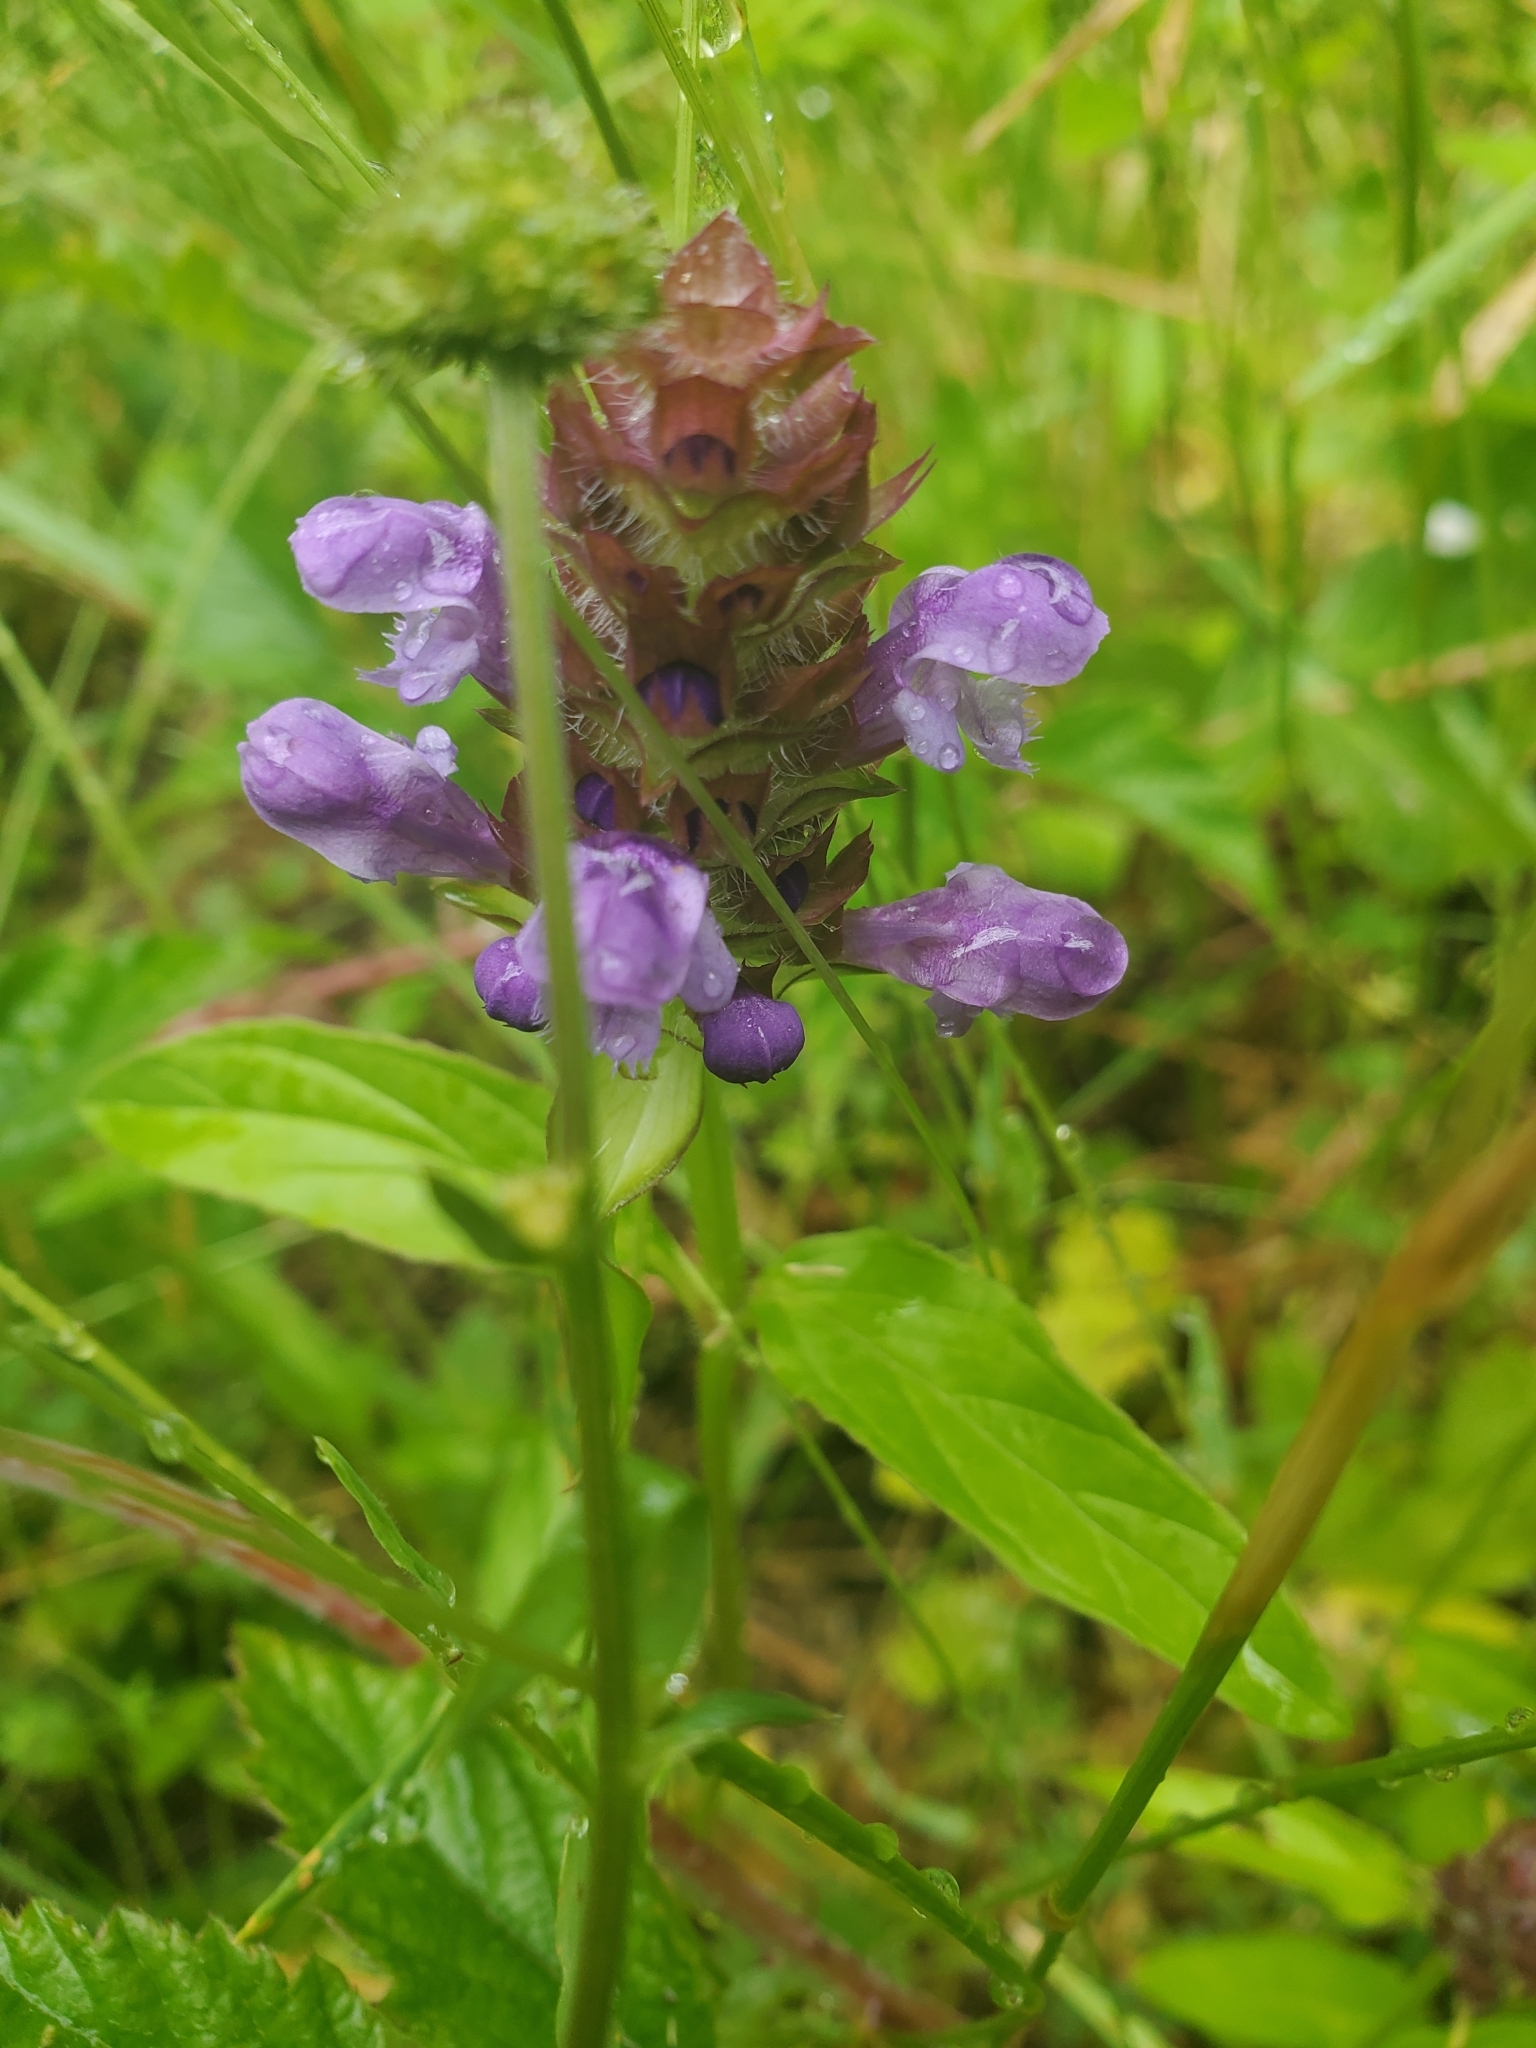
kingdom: Plantae
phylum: Tracheophyta
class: Magnoliopsida
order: Lamiales
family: Lamiaceae
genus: Prunella
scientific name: Prunella vulgaris
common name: Heal-all
